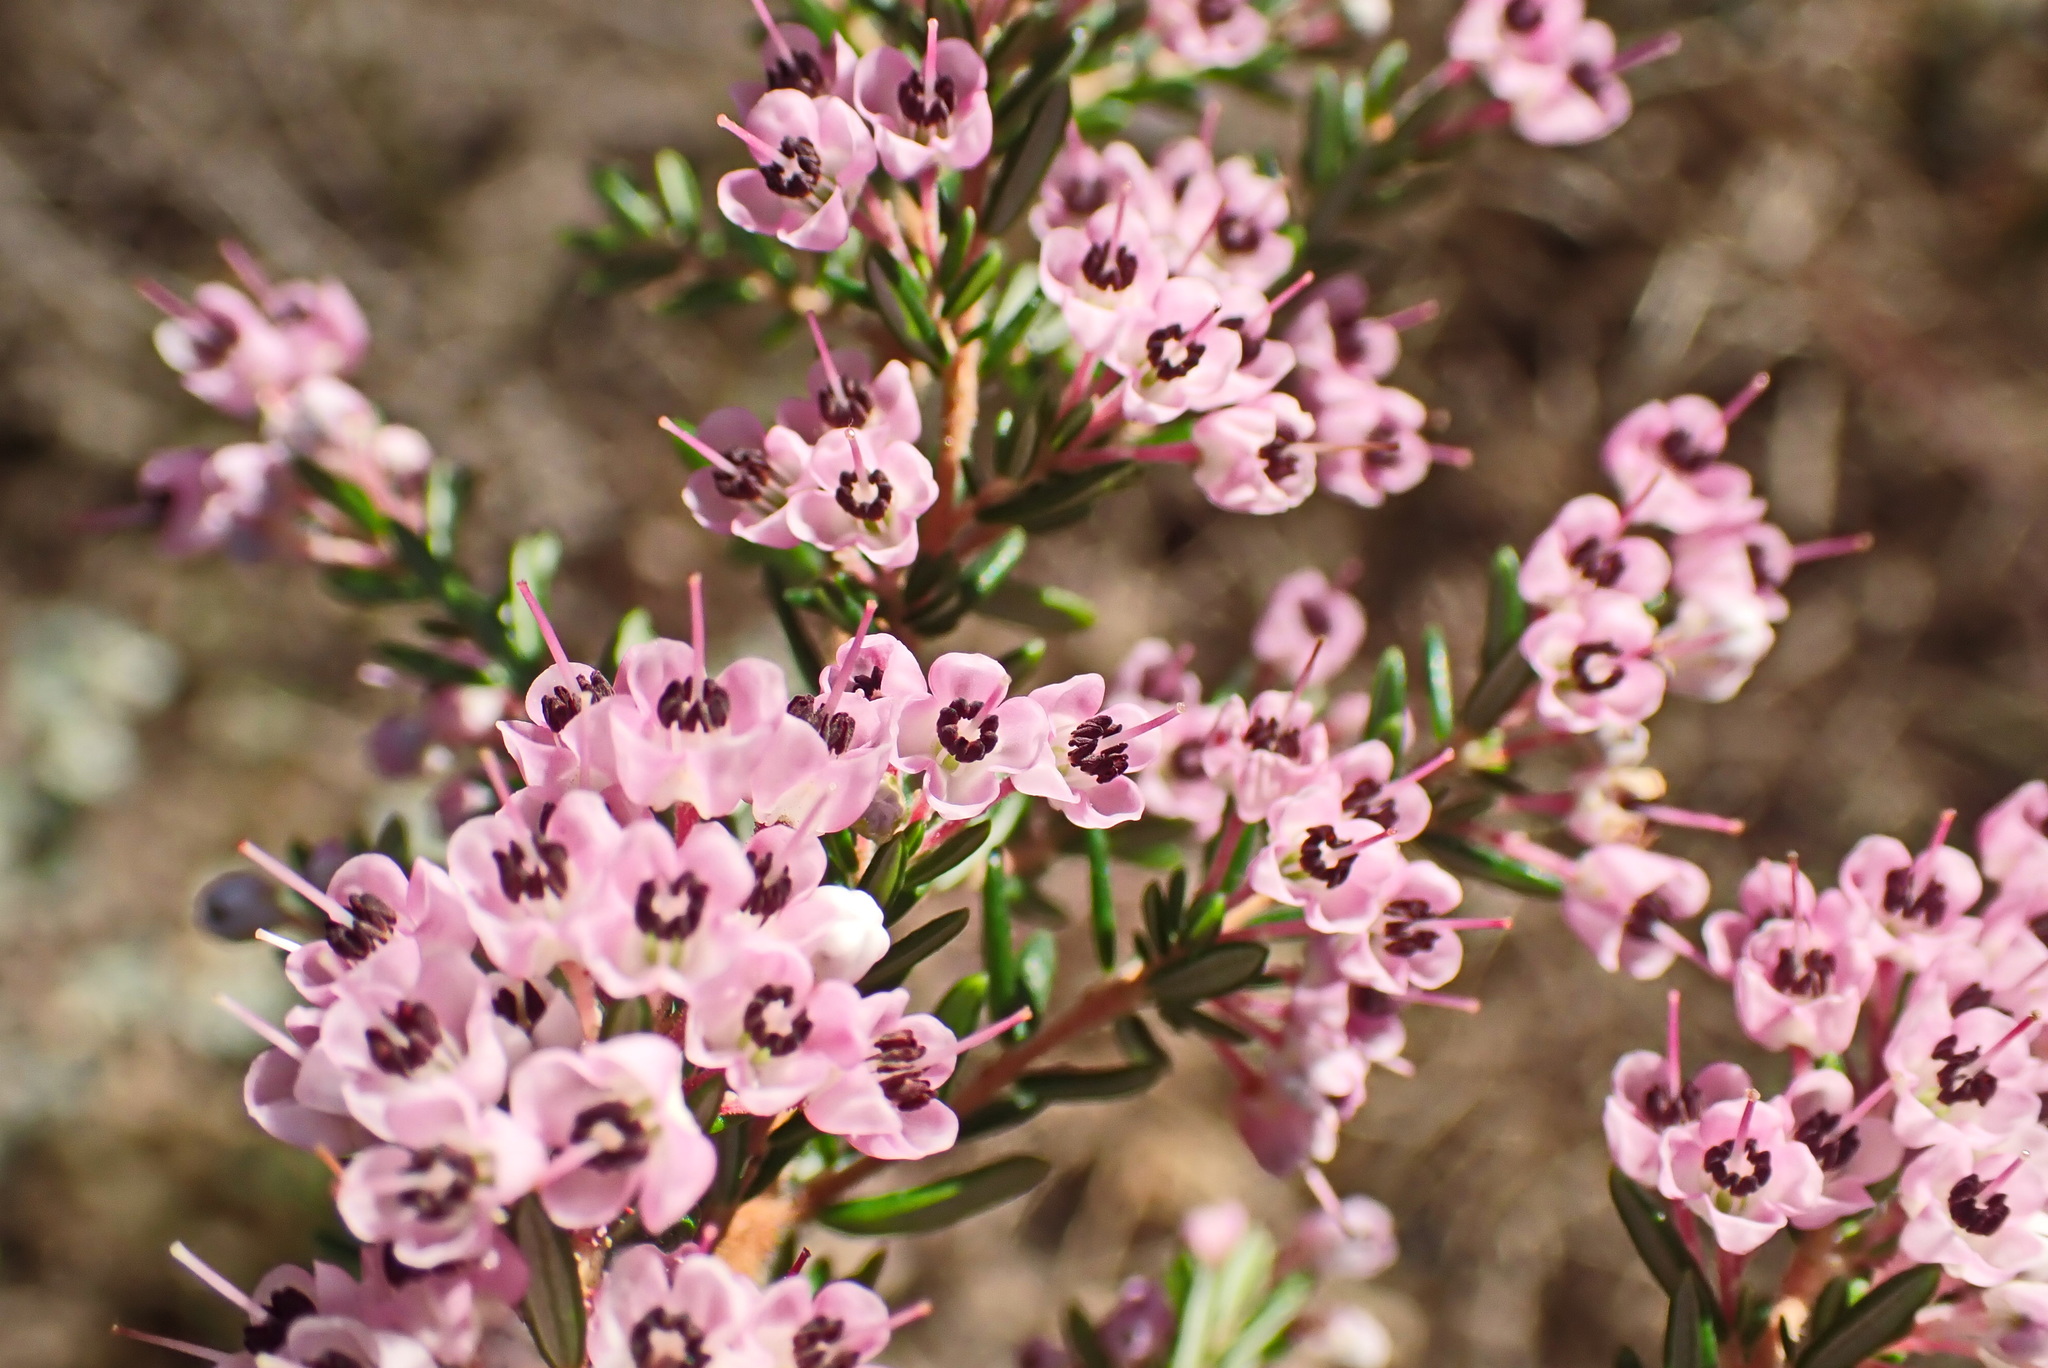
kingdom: Plantae
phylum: Tracheophyta
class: Magnoliopsida
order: Ericales
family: Ericaceae
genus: Erica
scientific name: Erica canaliculata
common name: Hairy grey heather
